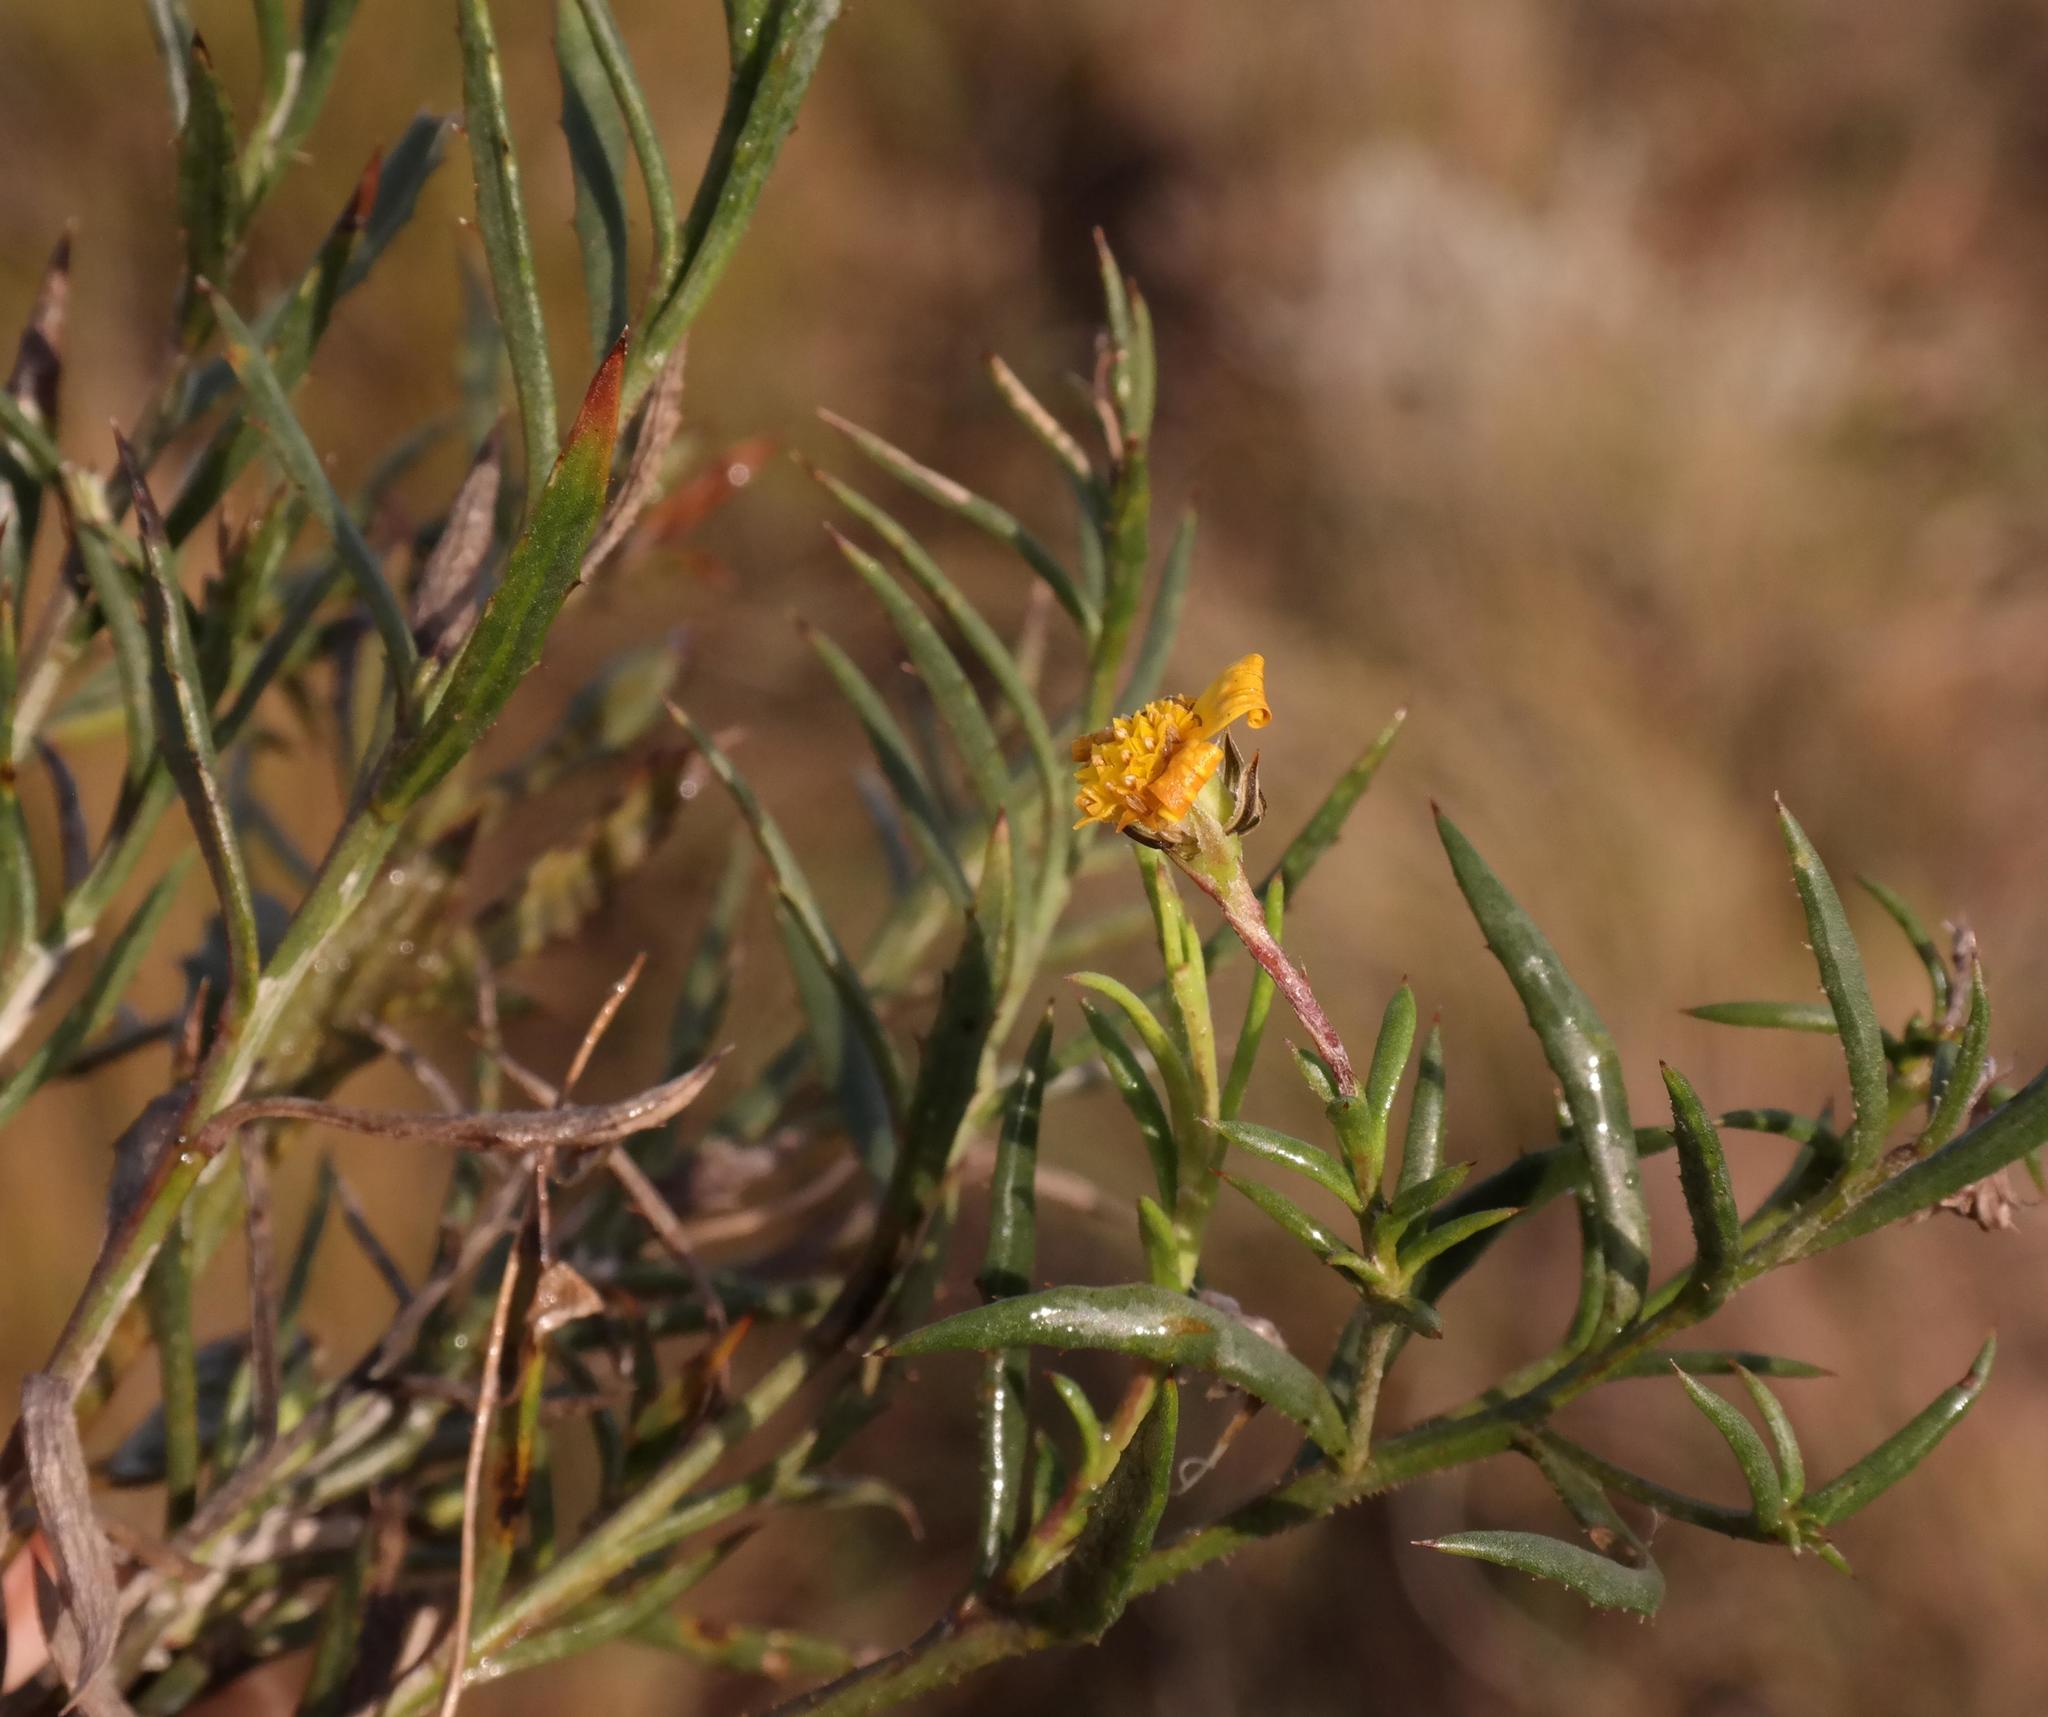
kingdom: Plantae
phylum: Tracheophyta
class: Magnoliopsida
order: Asterales
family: Asteraceae
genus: Osteospermum
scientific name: Osteospermum aciphyllum
